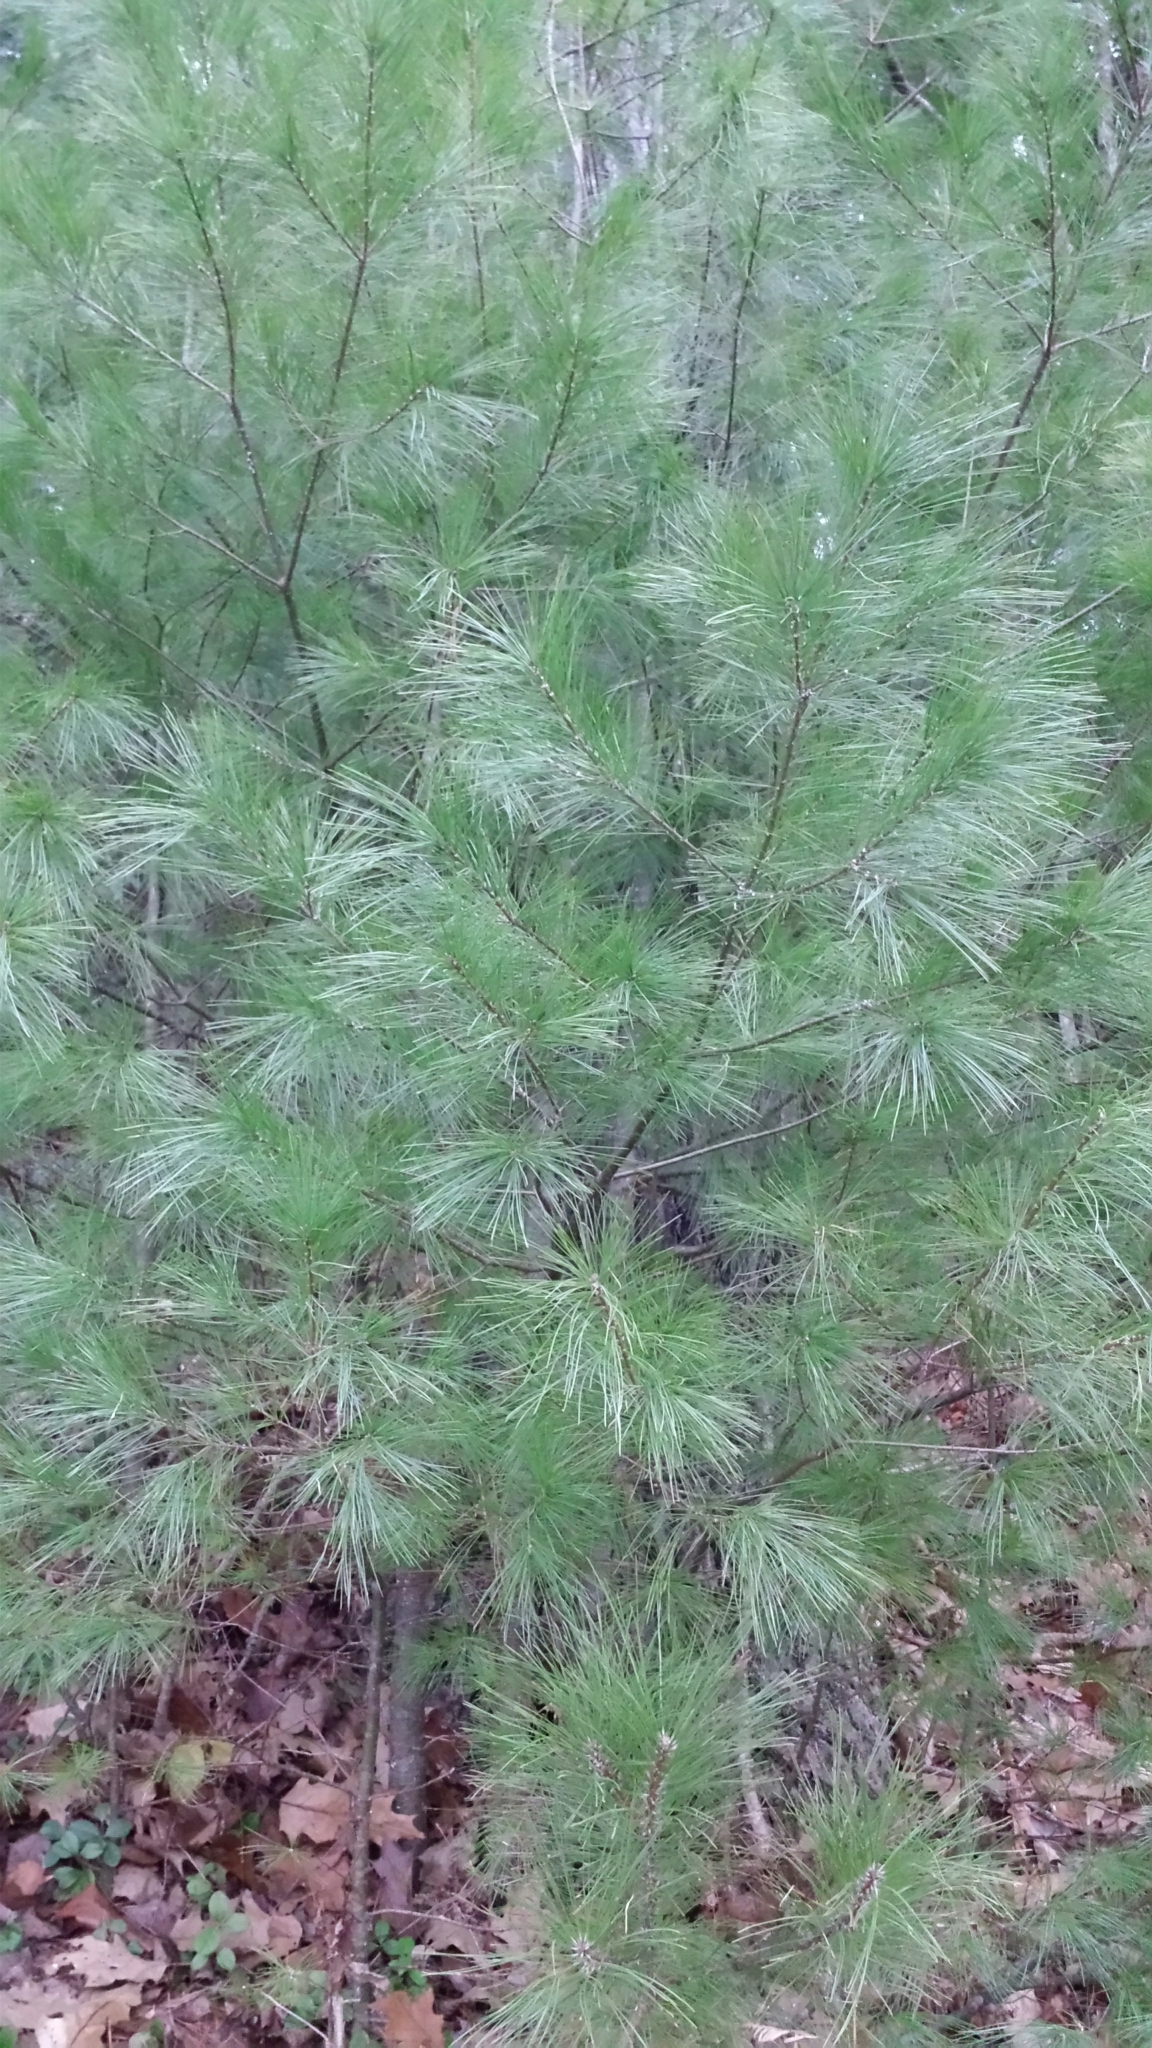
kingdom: Plantae
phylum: Tracheophyta
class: Pinopsida
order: Pinales
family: Pinaceae
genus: Pinus
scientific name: Pinus strobus
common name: Weymouth pine
